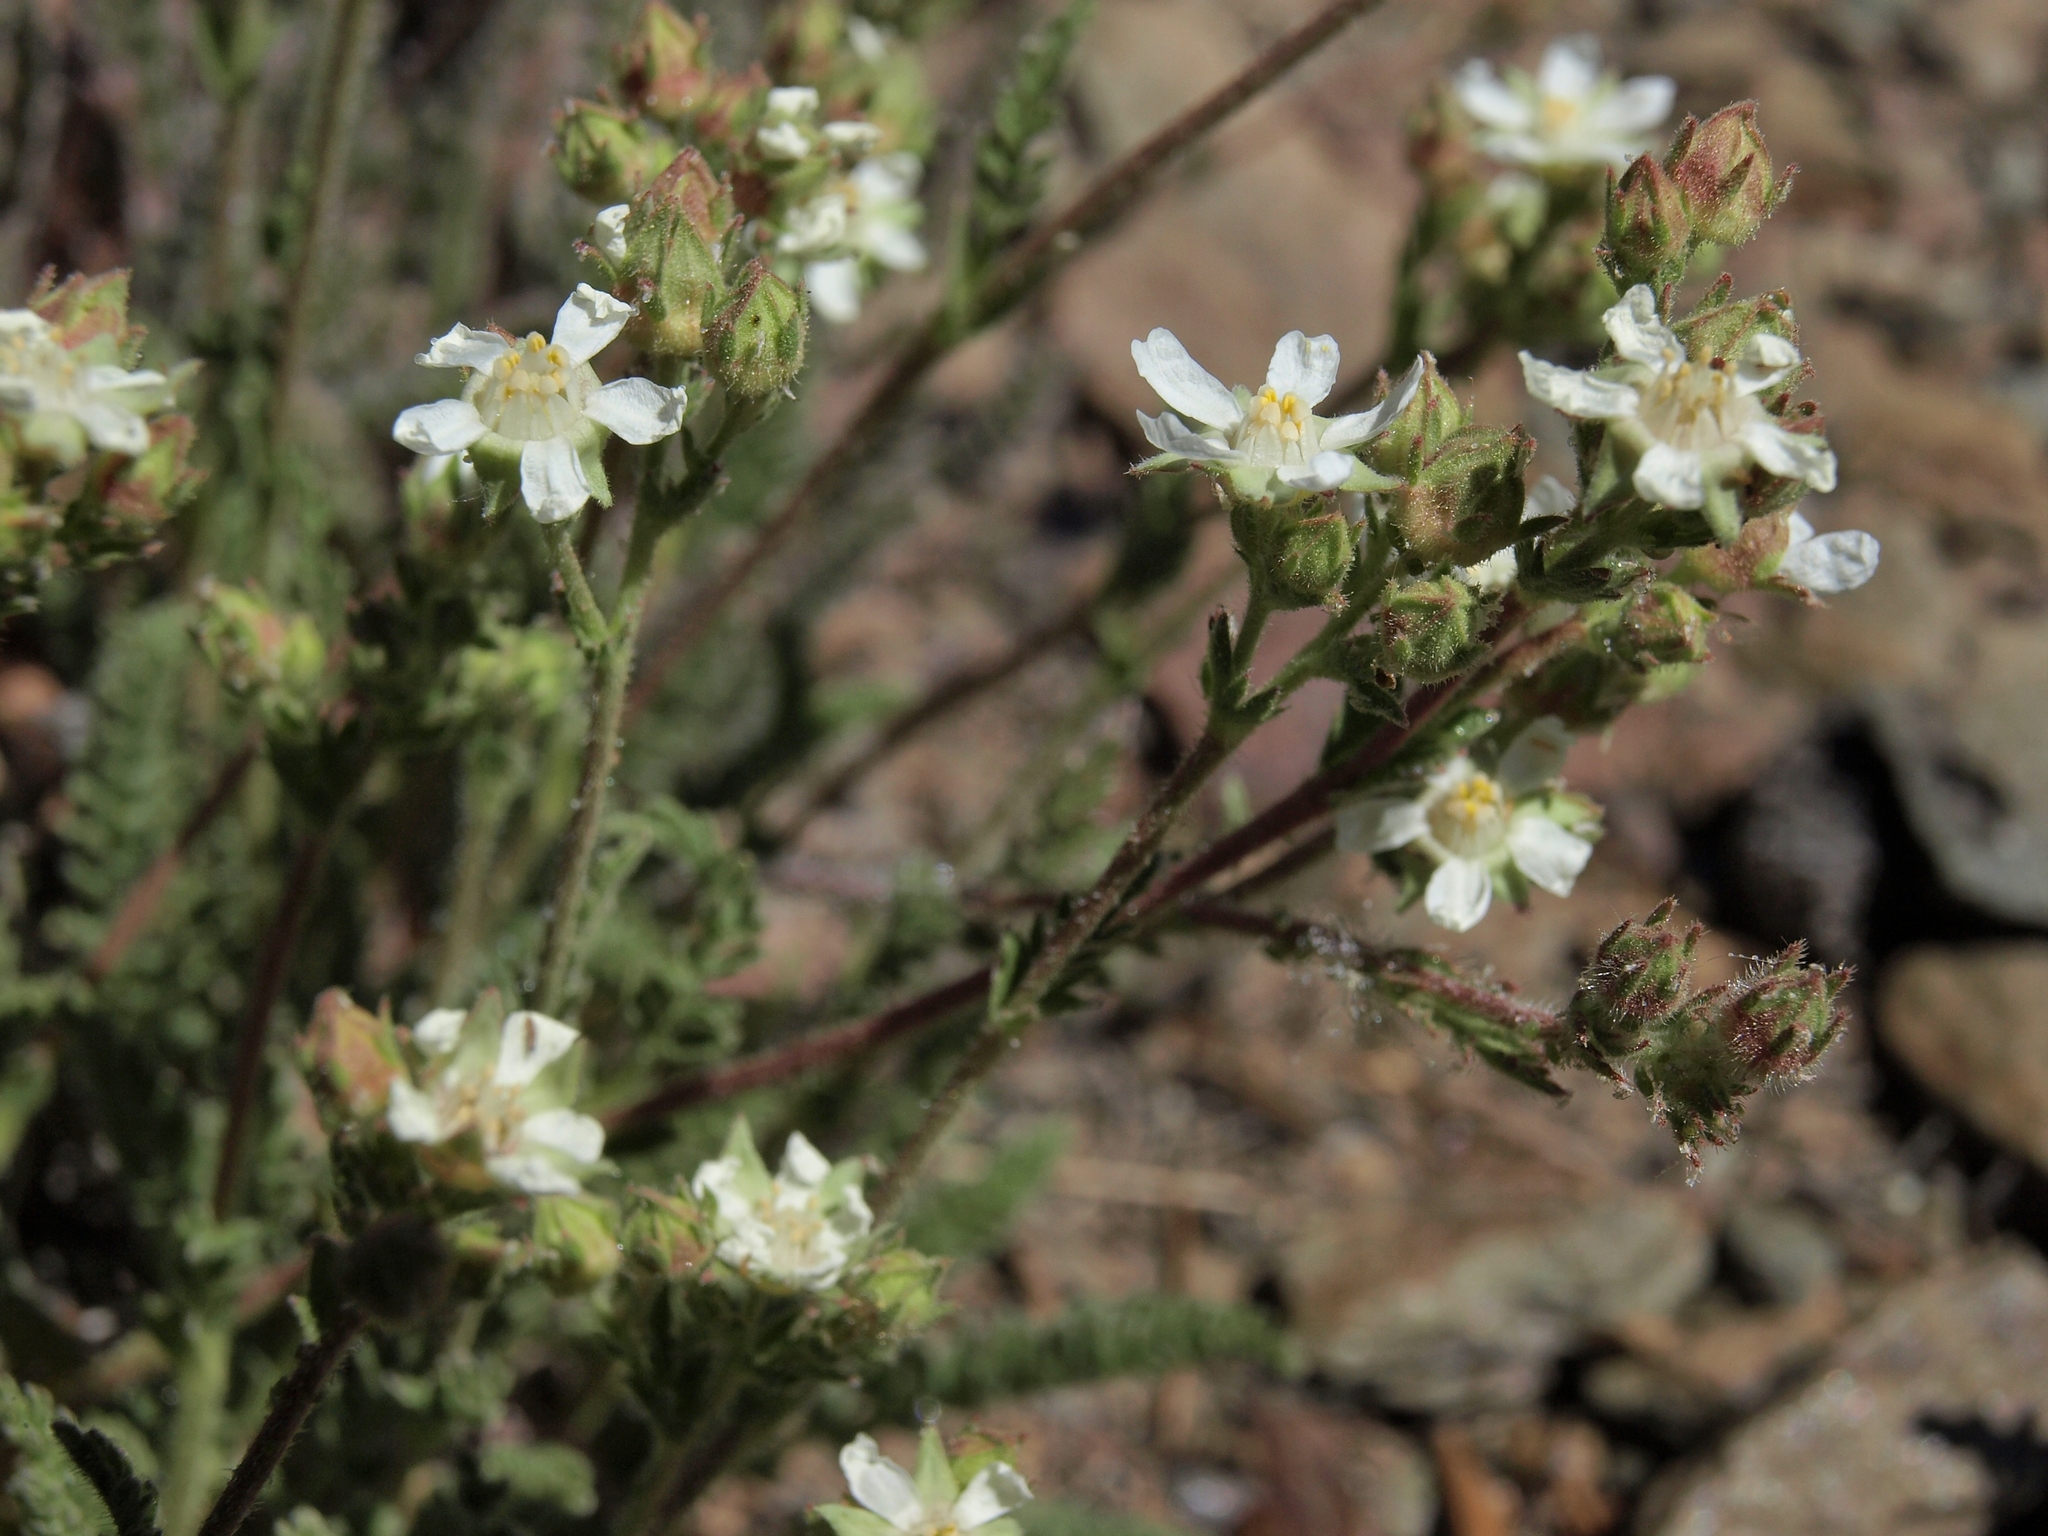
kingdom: Plantae
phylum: Tracheophyta
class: Magnoliopsida
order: Rosales
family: Rosaceae
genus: Potentilla
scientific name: Potentilla hispidula
